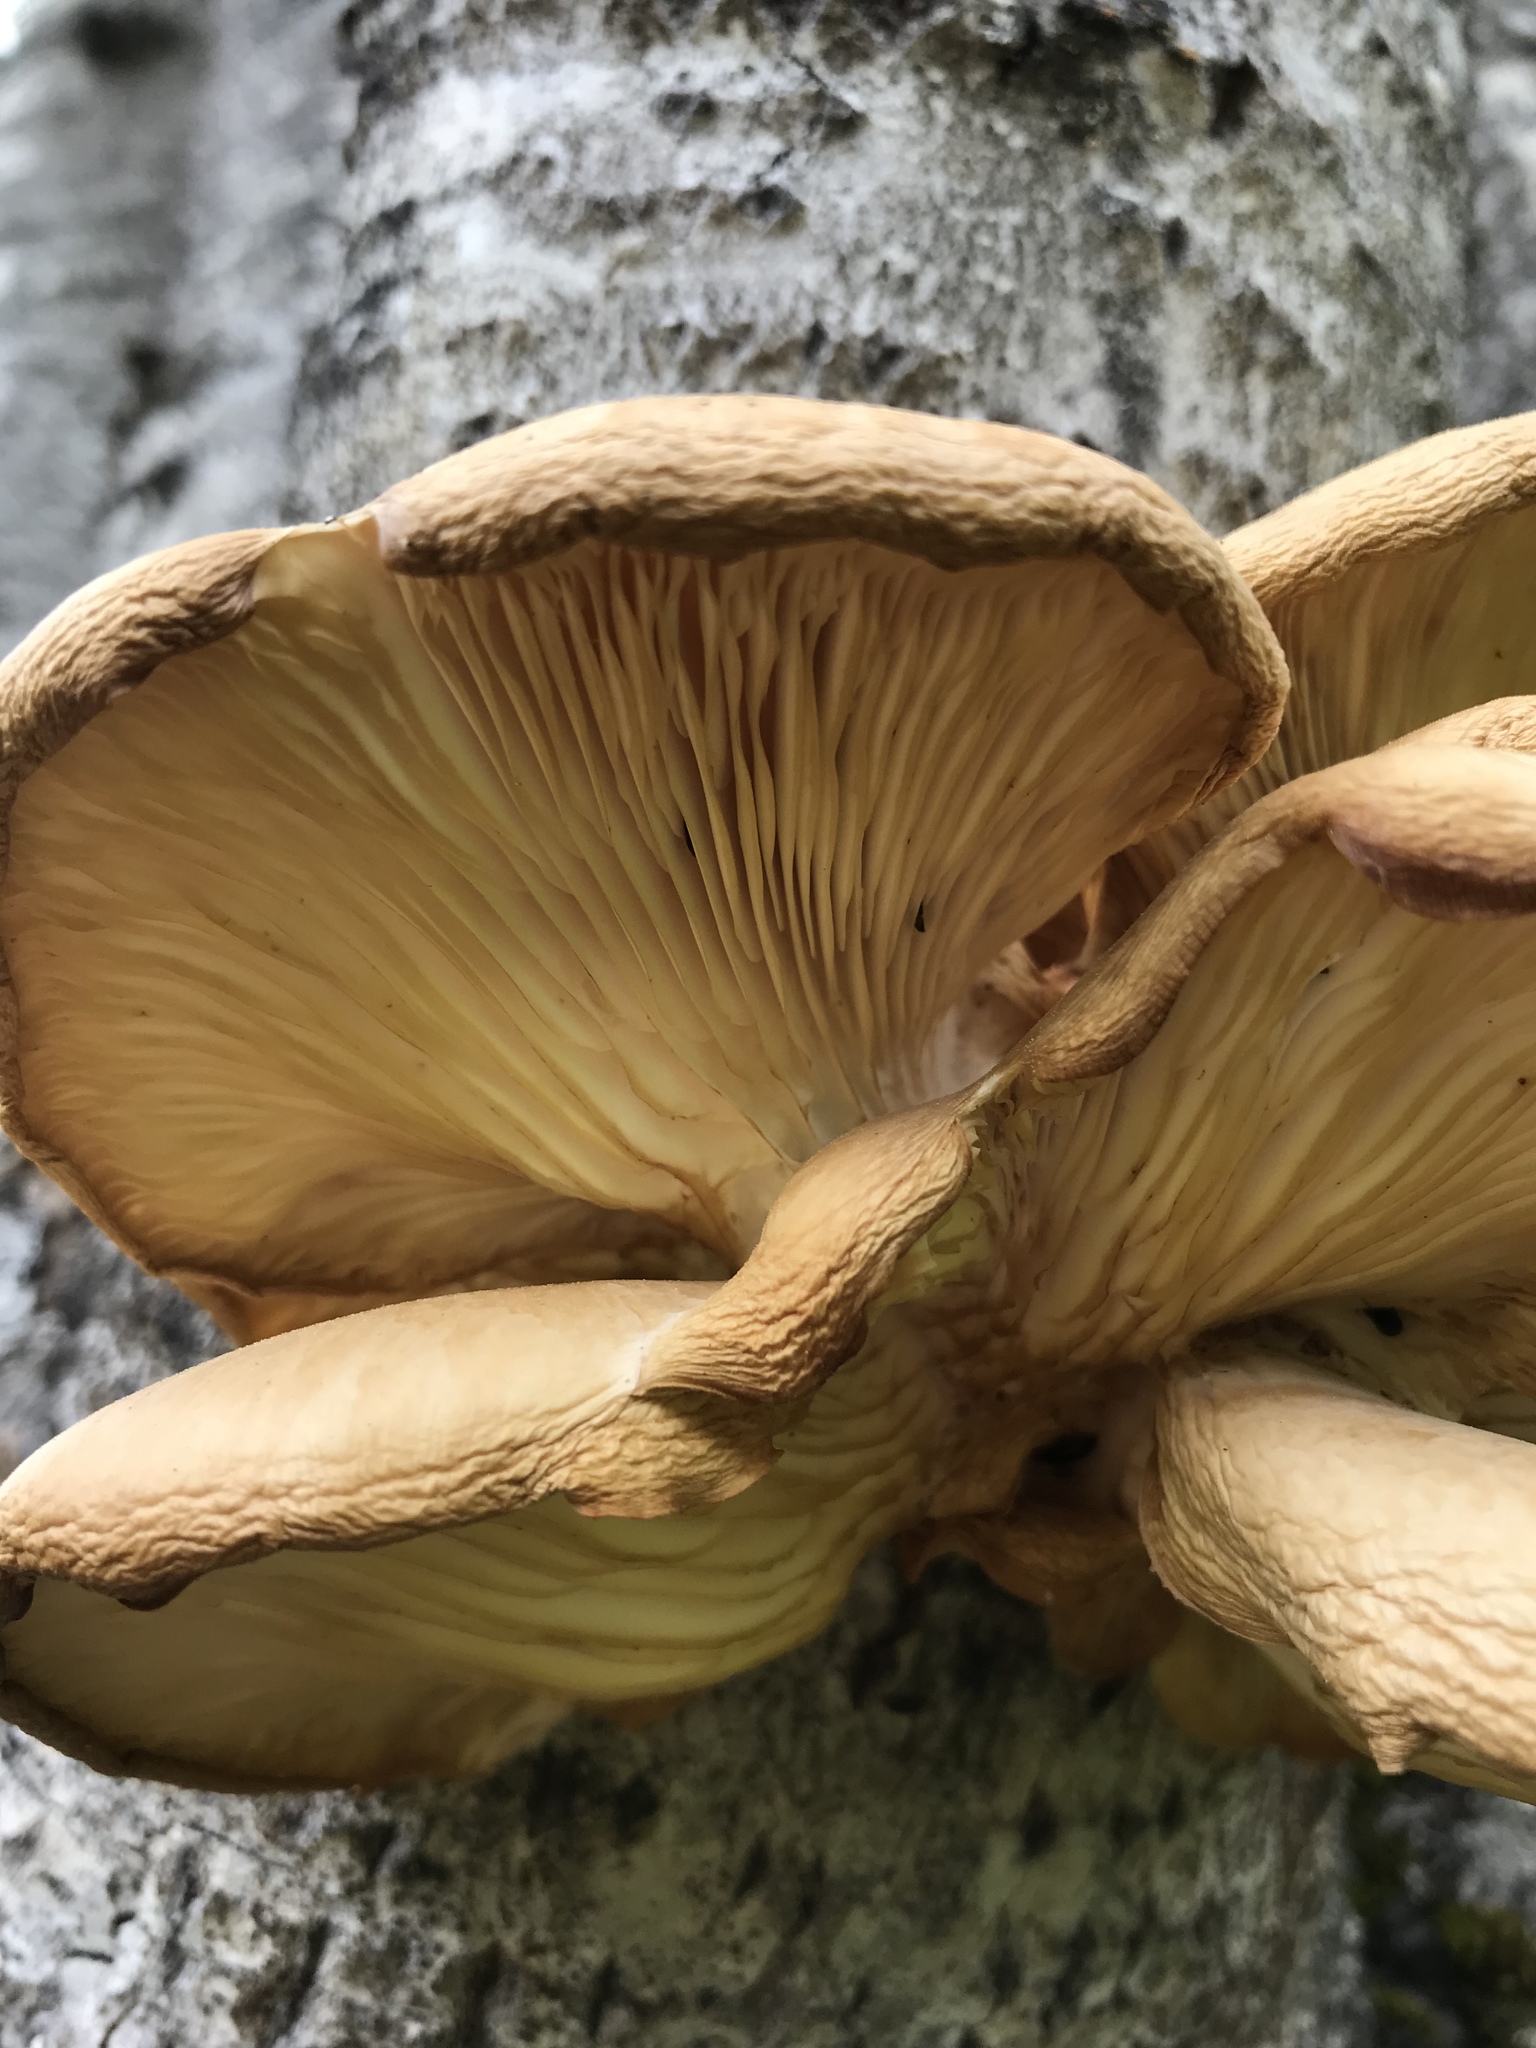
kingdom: Fungi
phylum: Basidiomycota
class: Agaricomycetes
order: Agaricales
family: Pleurotaceae
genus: Pleurotus
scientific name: Pleurotus populinus
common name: Aspen oyster mushroom
